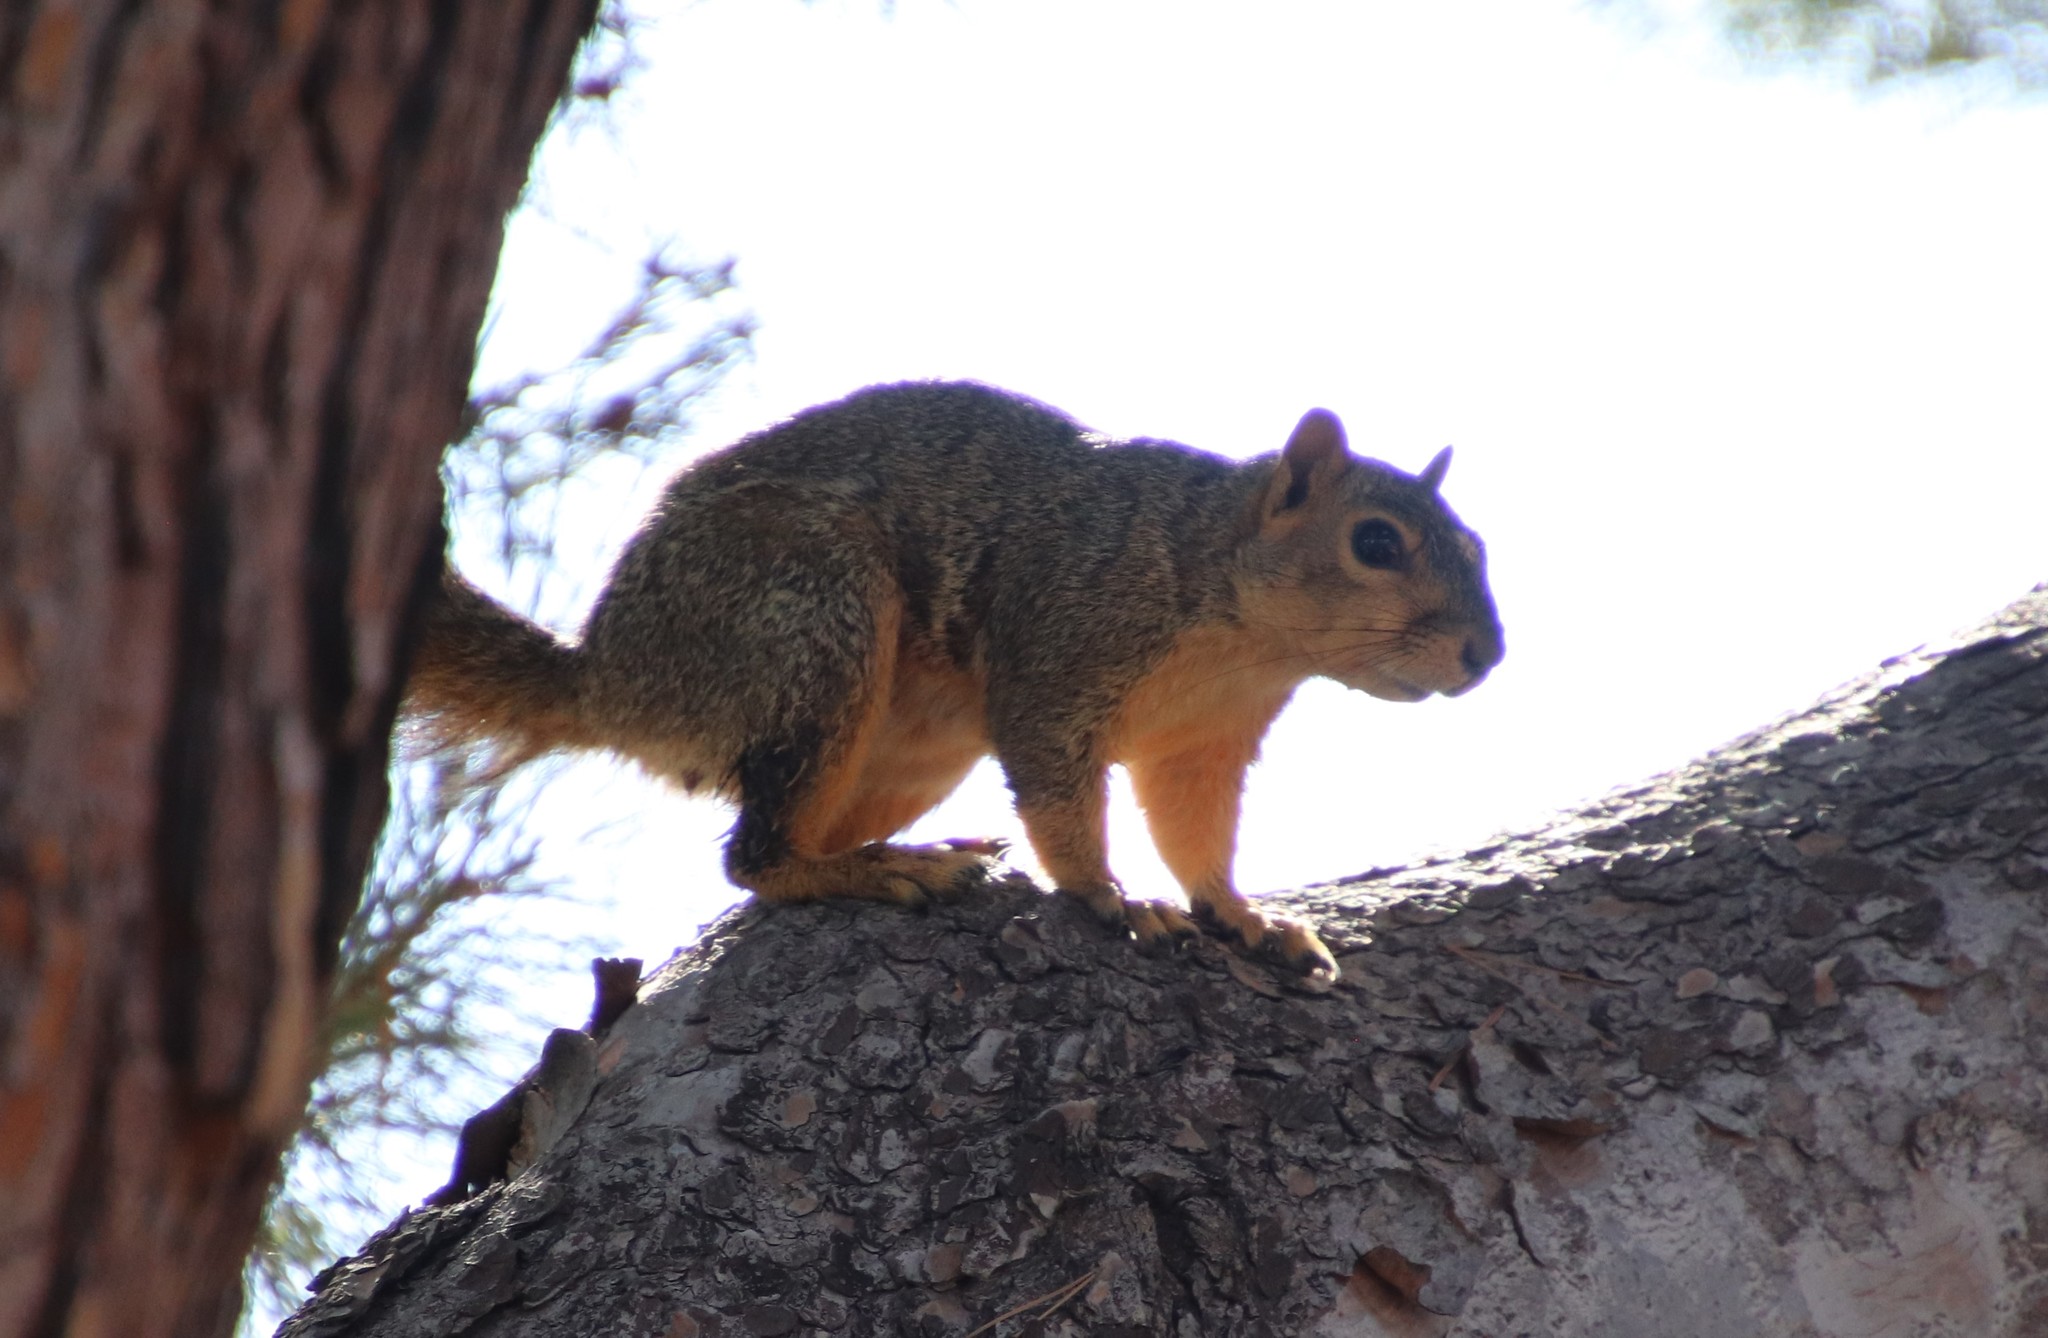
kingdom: Animalia
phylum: Chordata
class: Mammalia
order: Rodentia
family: Sciuridae
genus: Sciurus
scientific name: Sciurus niger
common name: Fox squirrel
